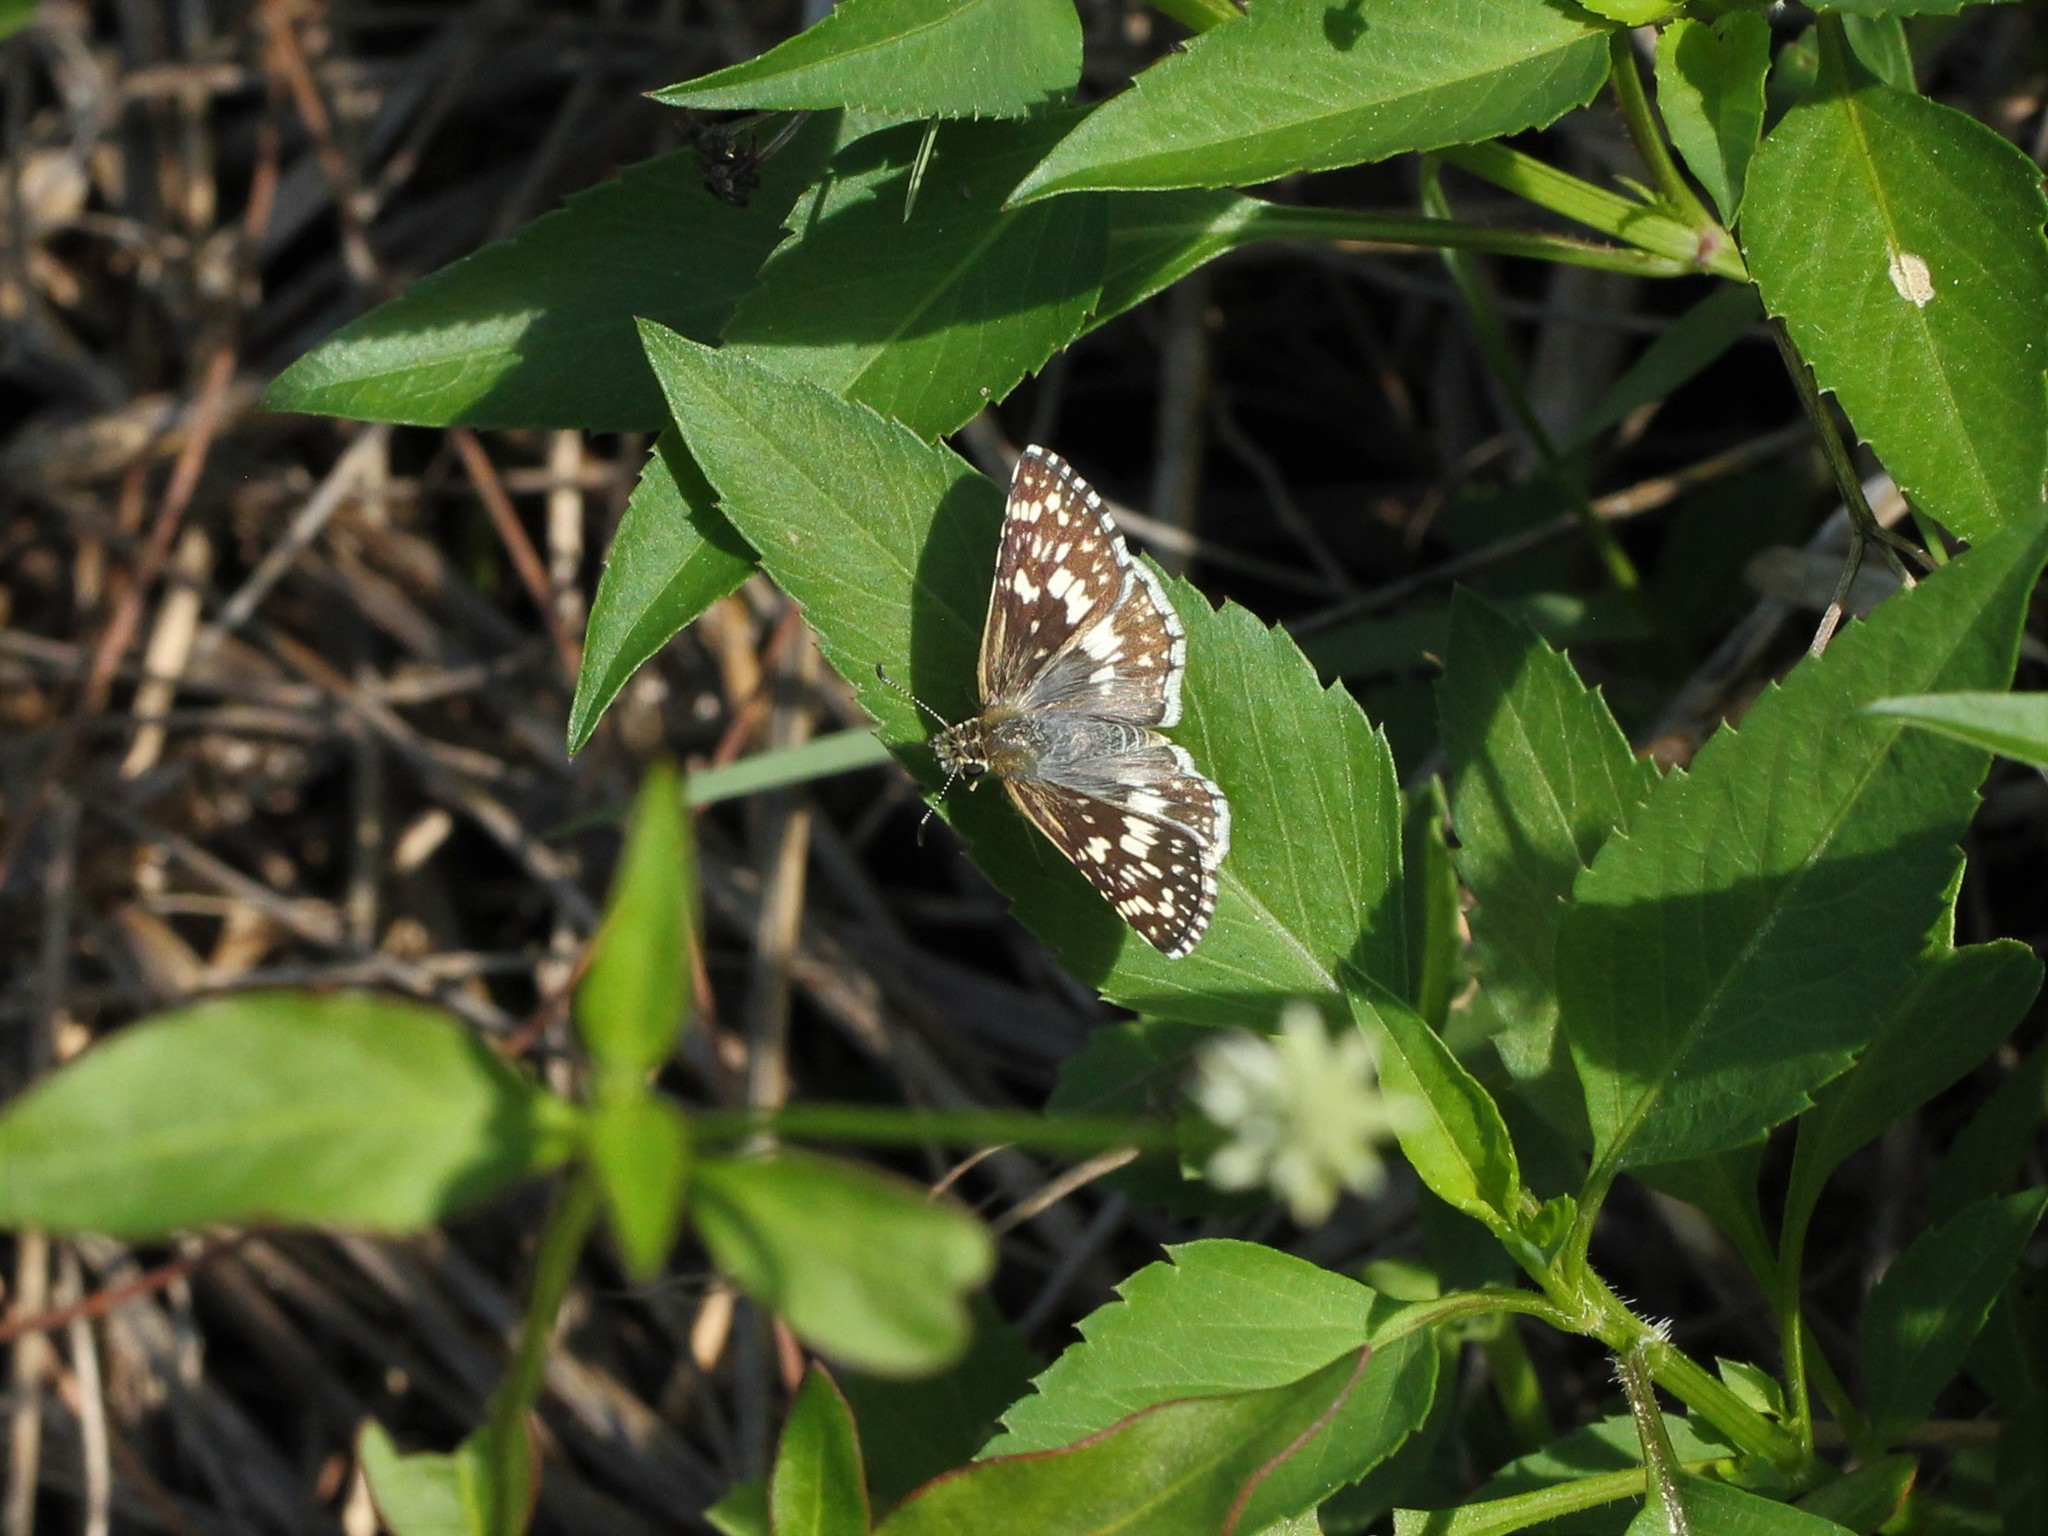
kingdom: Animalia
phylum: Arthropoda
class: Insecta
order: Lepidoptera
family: Hesperiidae
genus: Burnsius
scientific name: Burnsius albezens
